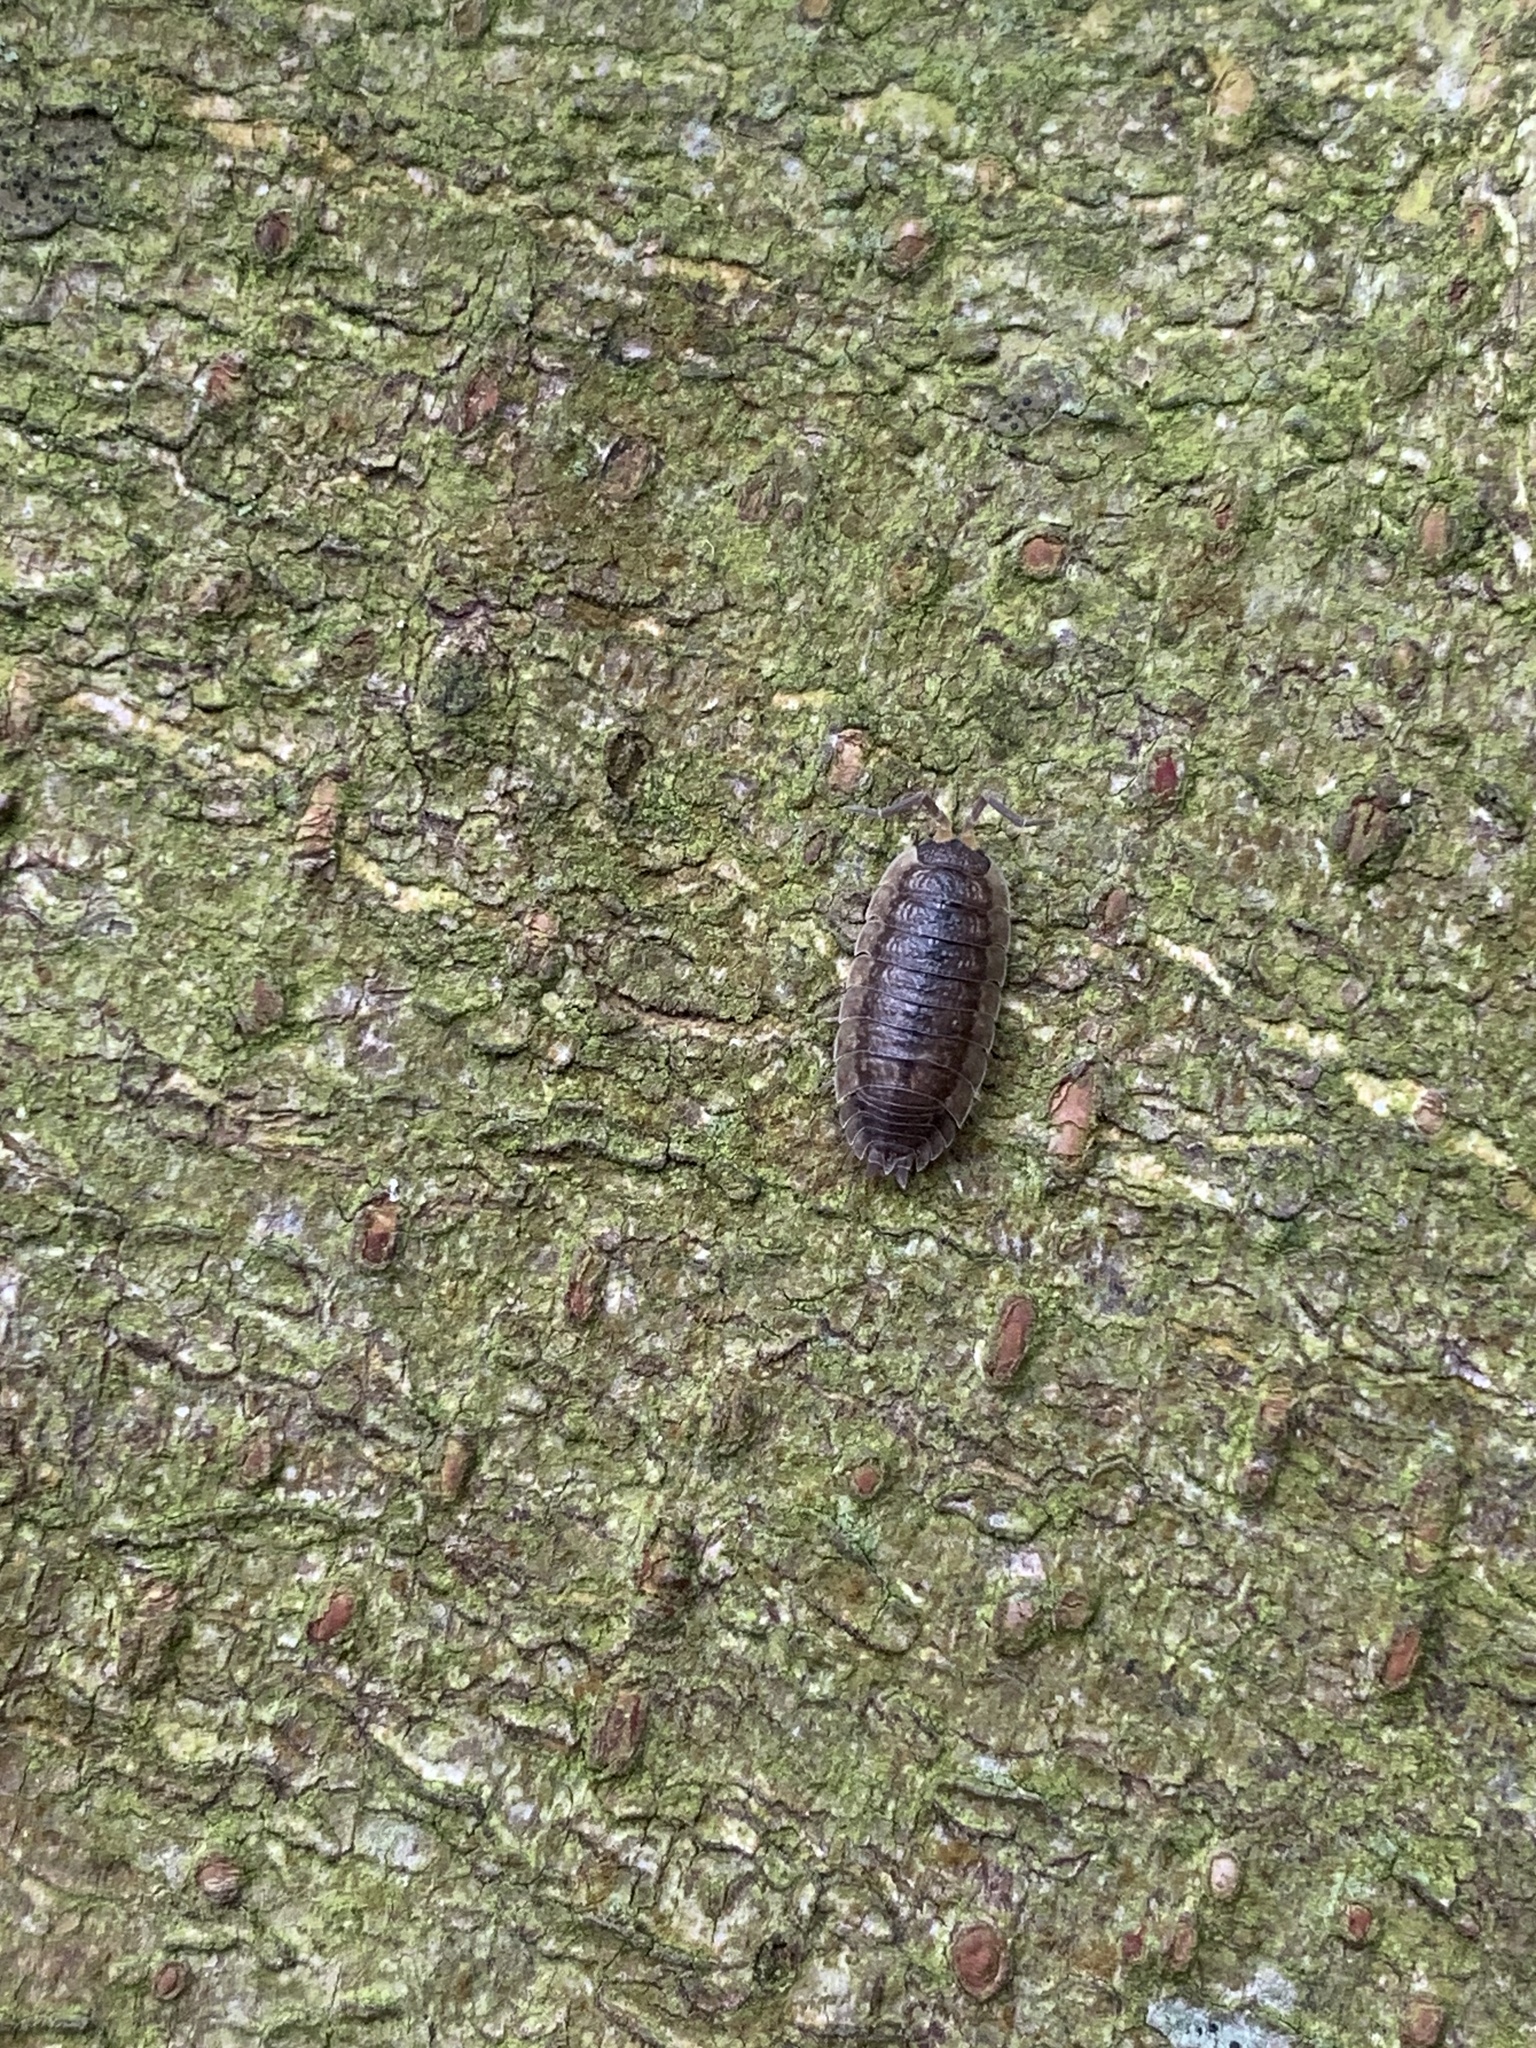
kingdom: Animalia
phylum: Arthropoda
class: Malacostraca
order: Isopoda
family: Porcellionidae
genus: Porcellio
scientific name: Porcellio scaber
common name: Common rough woodlouse
